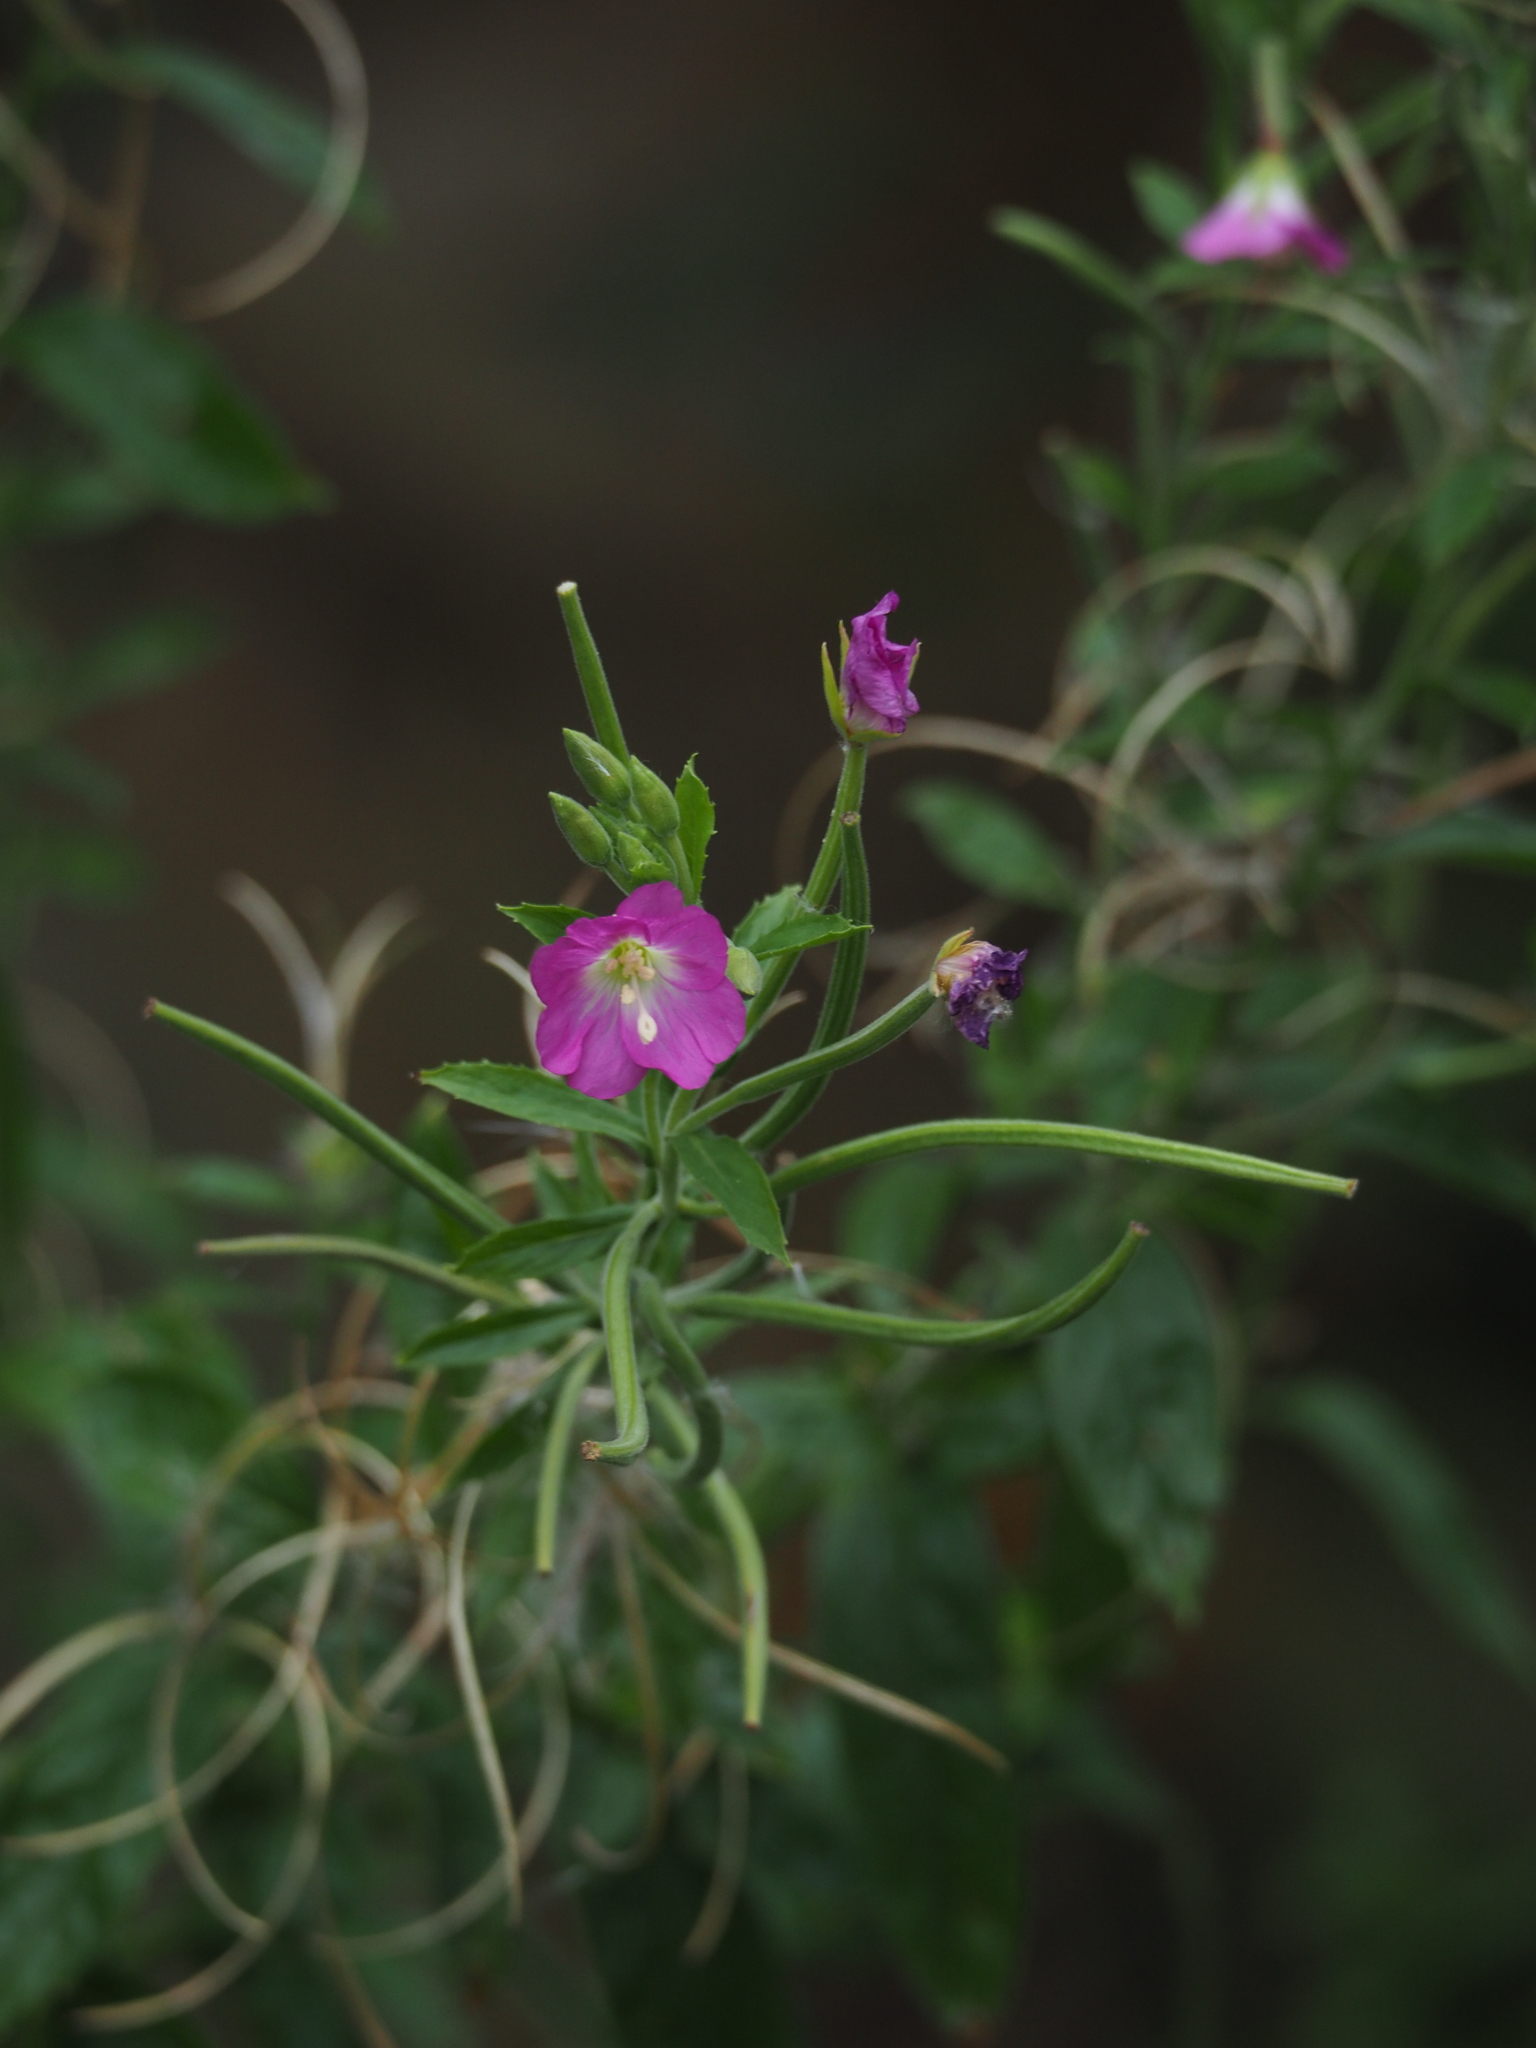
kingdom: Plantae
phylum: Tracheophyta
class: Magnoliopsida
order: Myrtales
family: Onagraceae
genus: Epilobium
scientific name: Epilobium hirsutum
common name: Great willowherb
